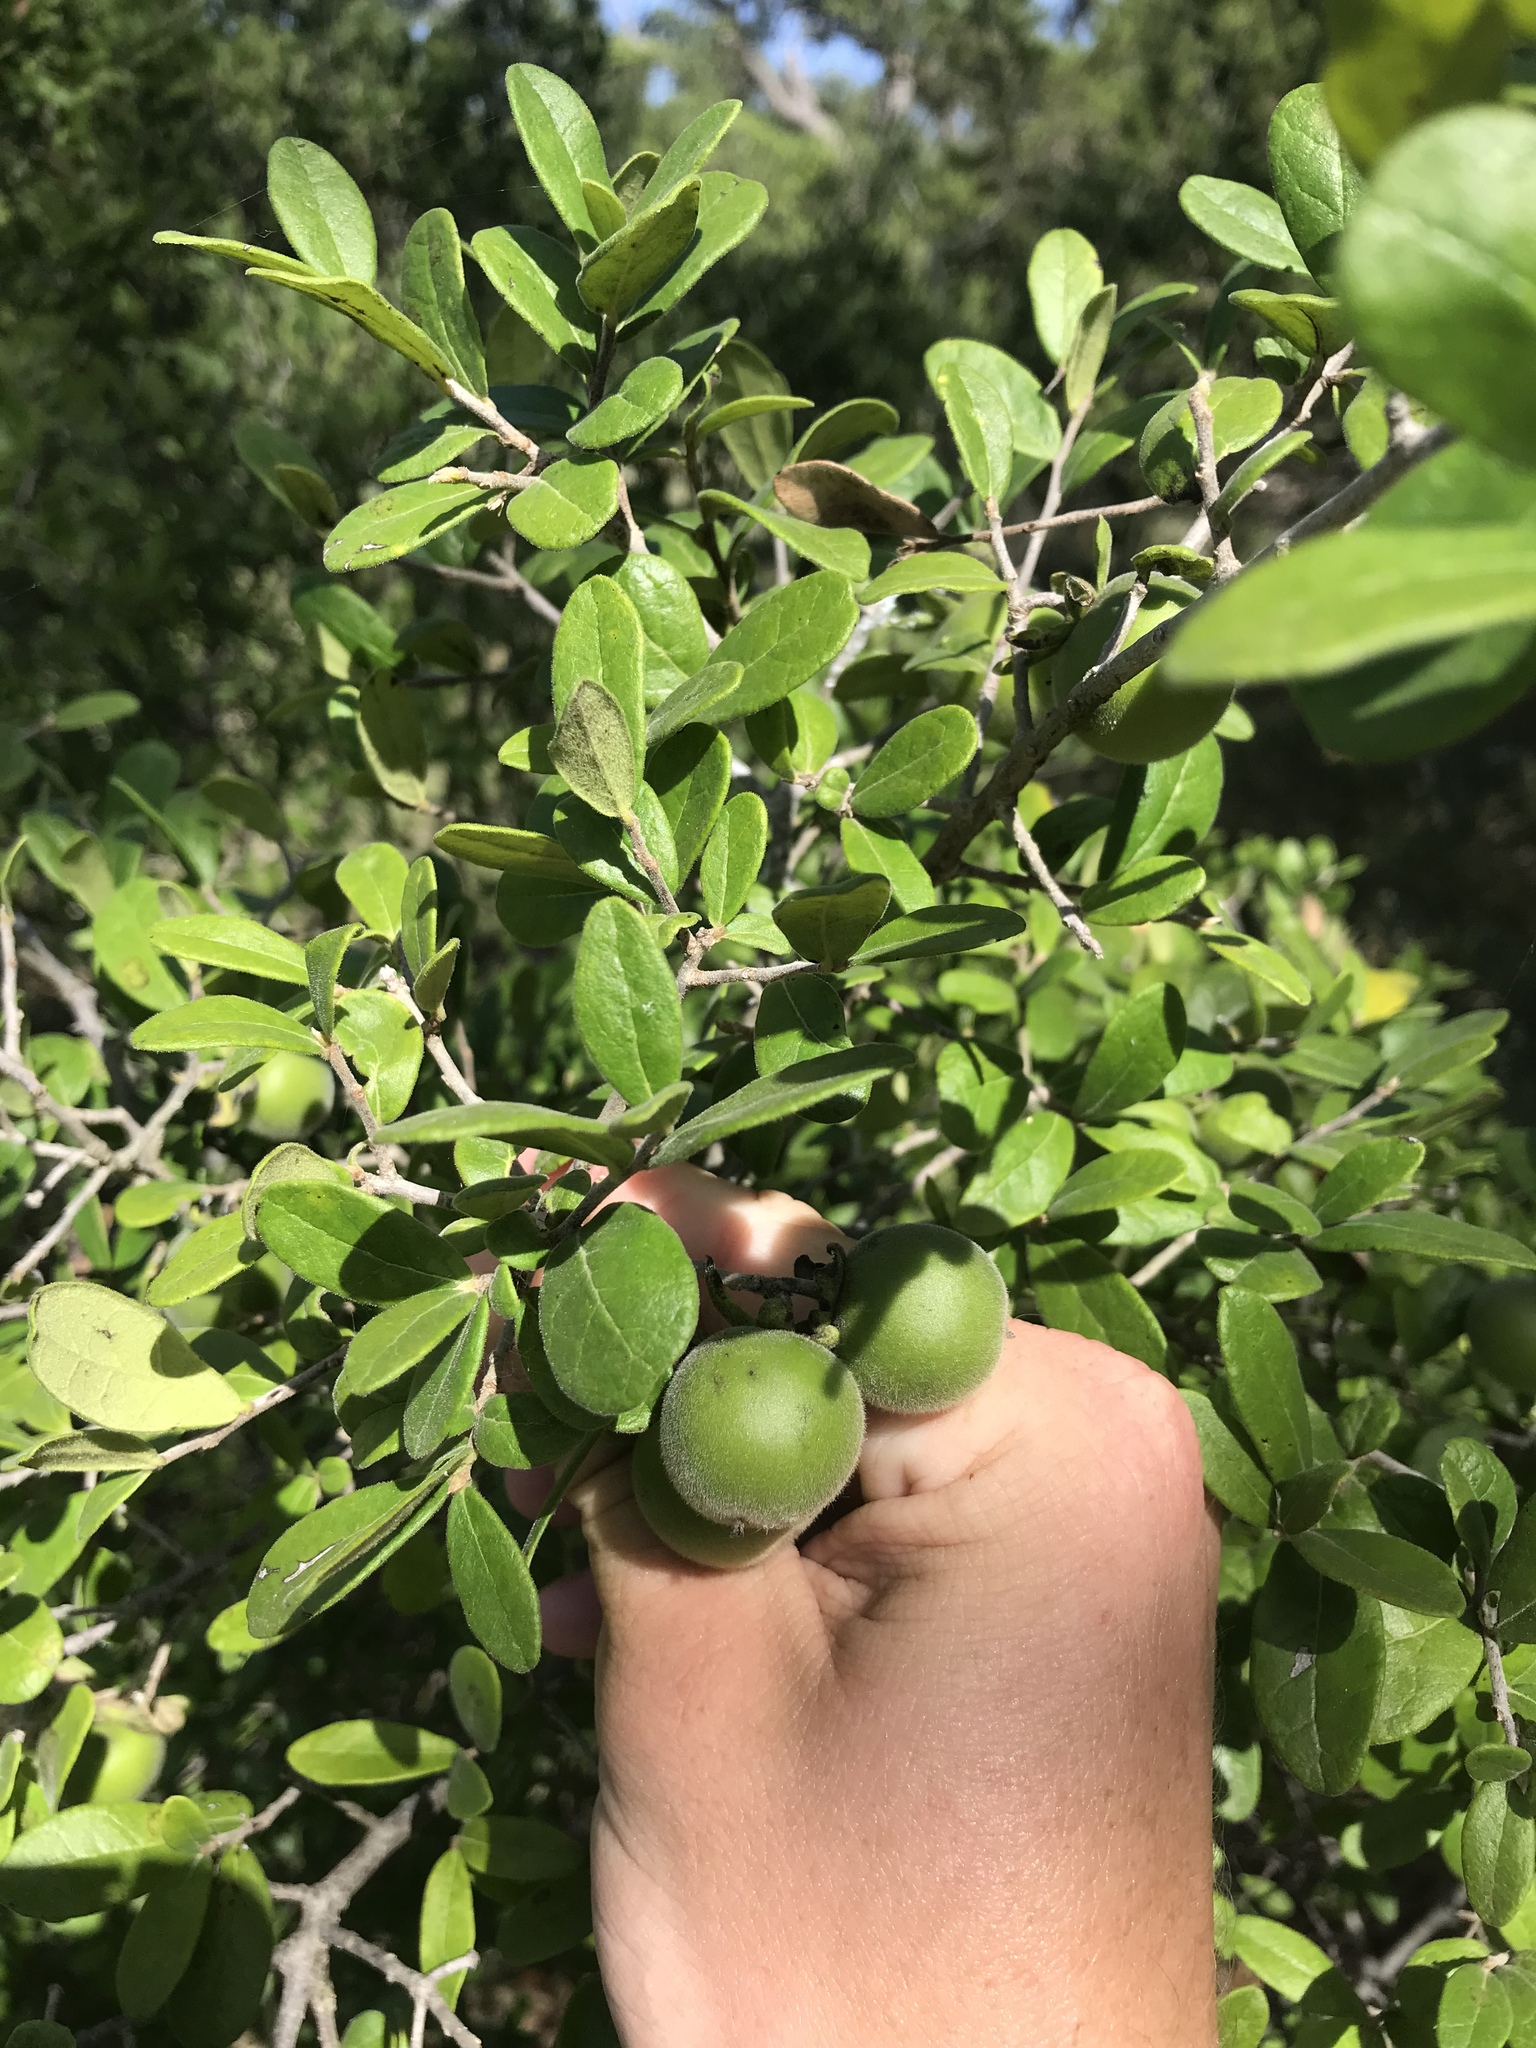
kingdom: Plantae
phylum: Tracheophyta
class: Magnoliopsida
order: Ericales
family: Ebenaceae
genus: Diospyros
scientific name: Diospyros texana
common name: Texas persimmon
